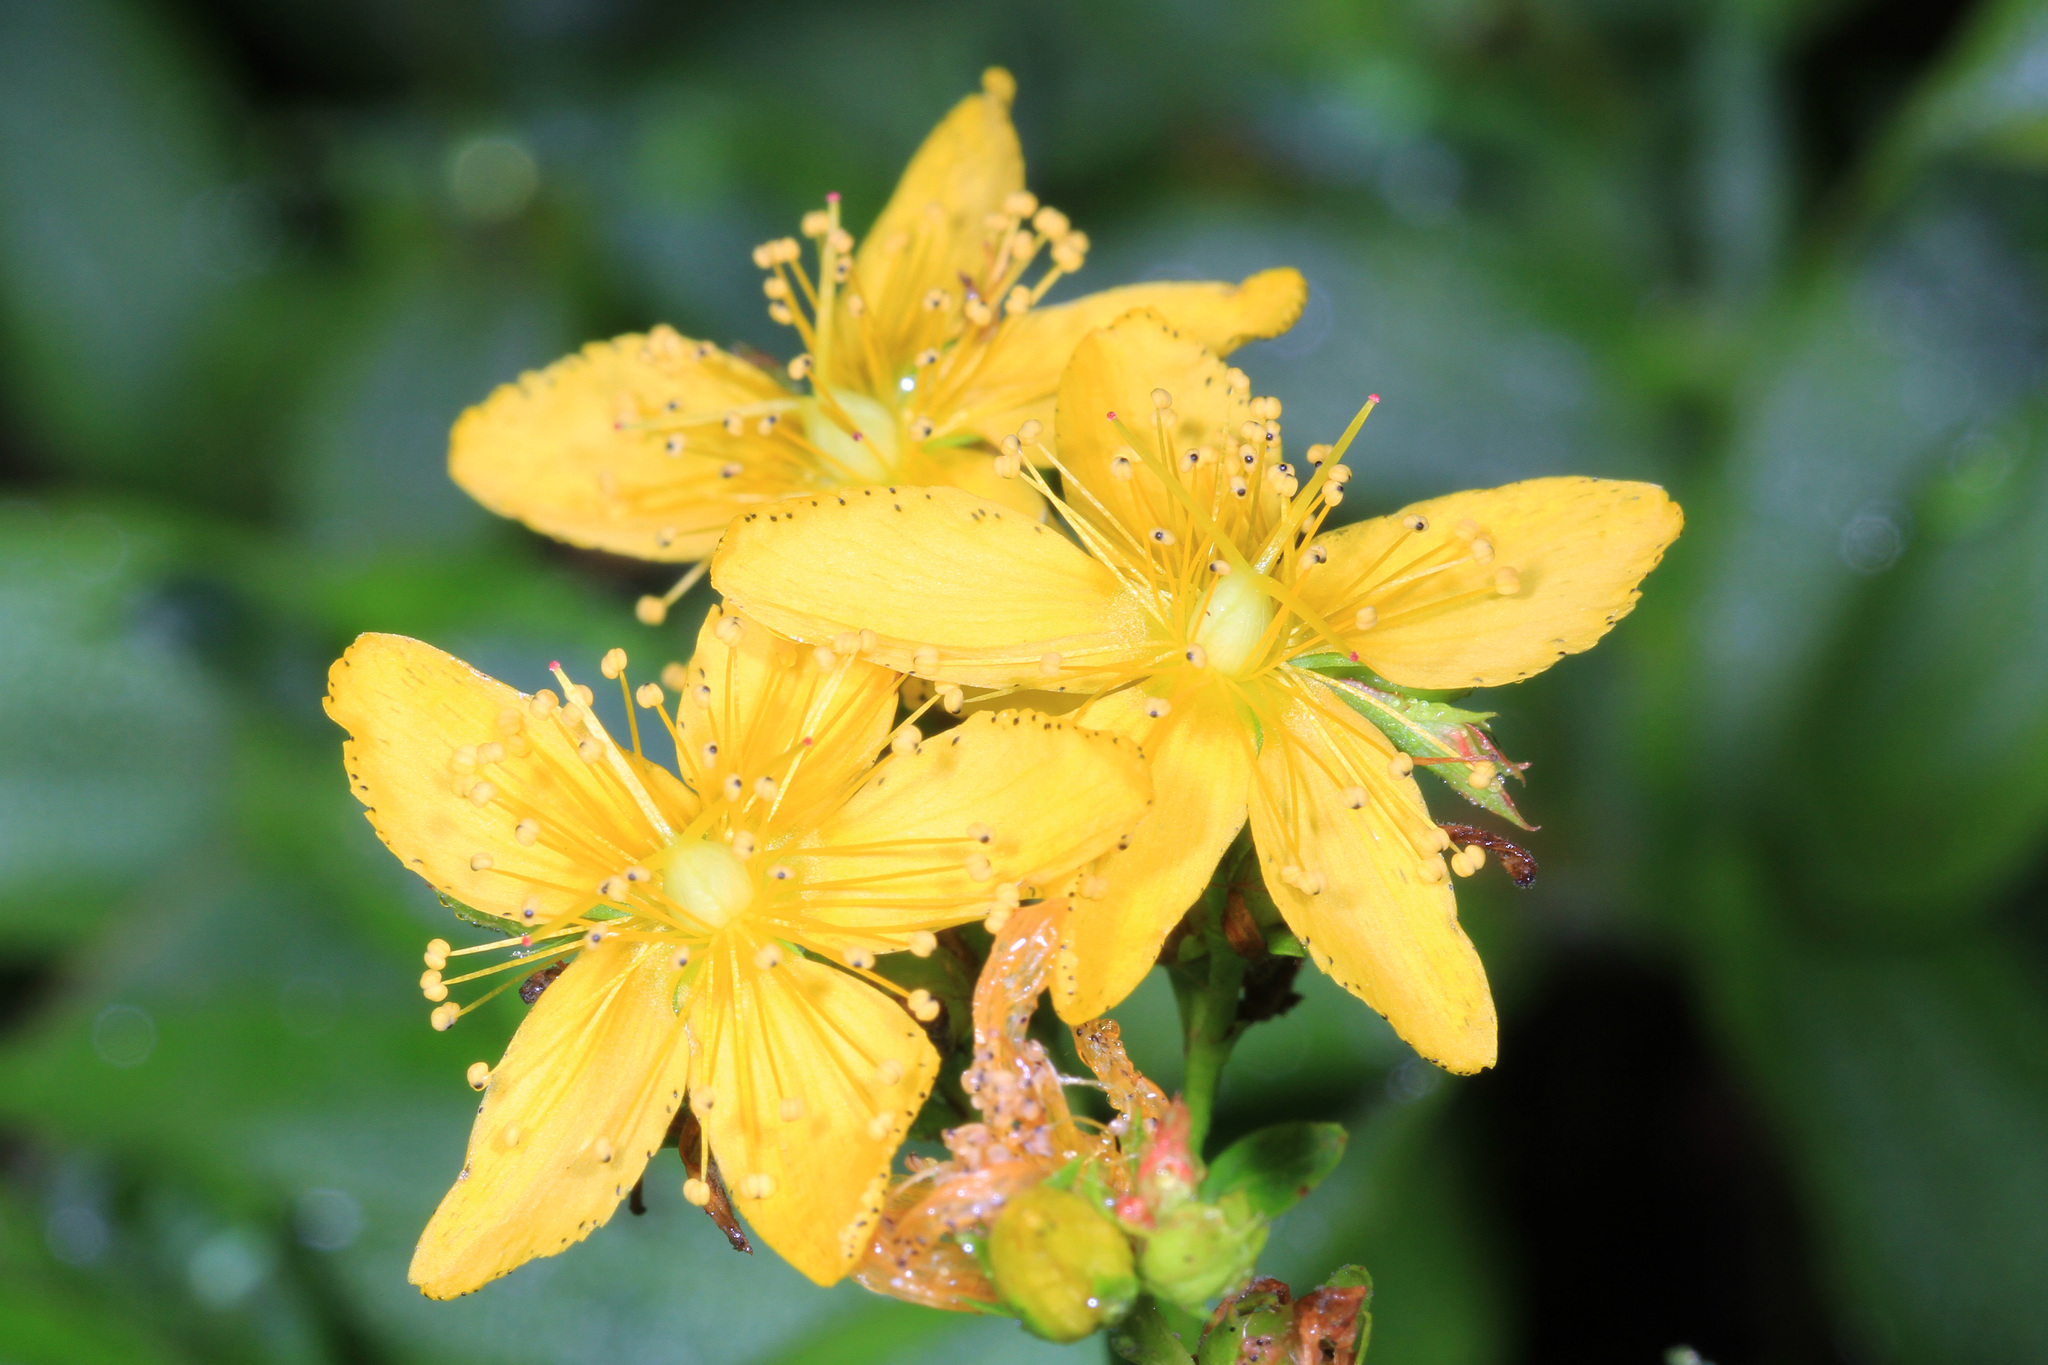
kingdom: Plantae
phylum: Tracheophyta
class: Magnoliopsida
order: Malpighiales
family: Hypericaceae
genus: Hypericum
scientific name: Hypericum perforatum
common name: Common st. johnswort
